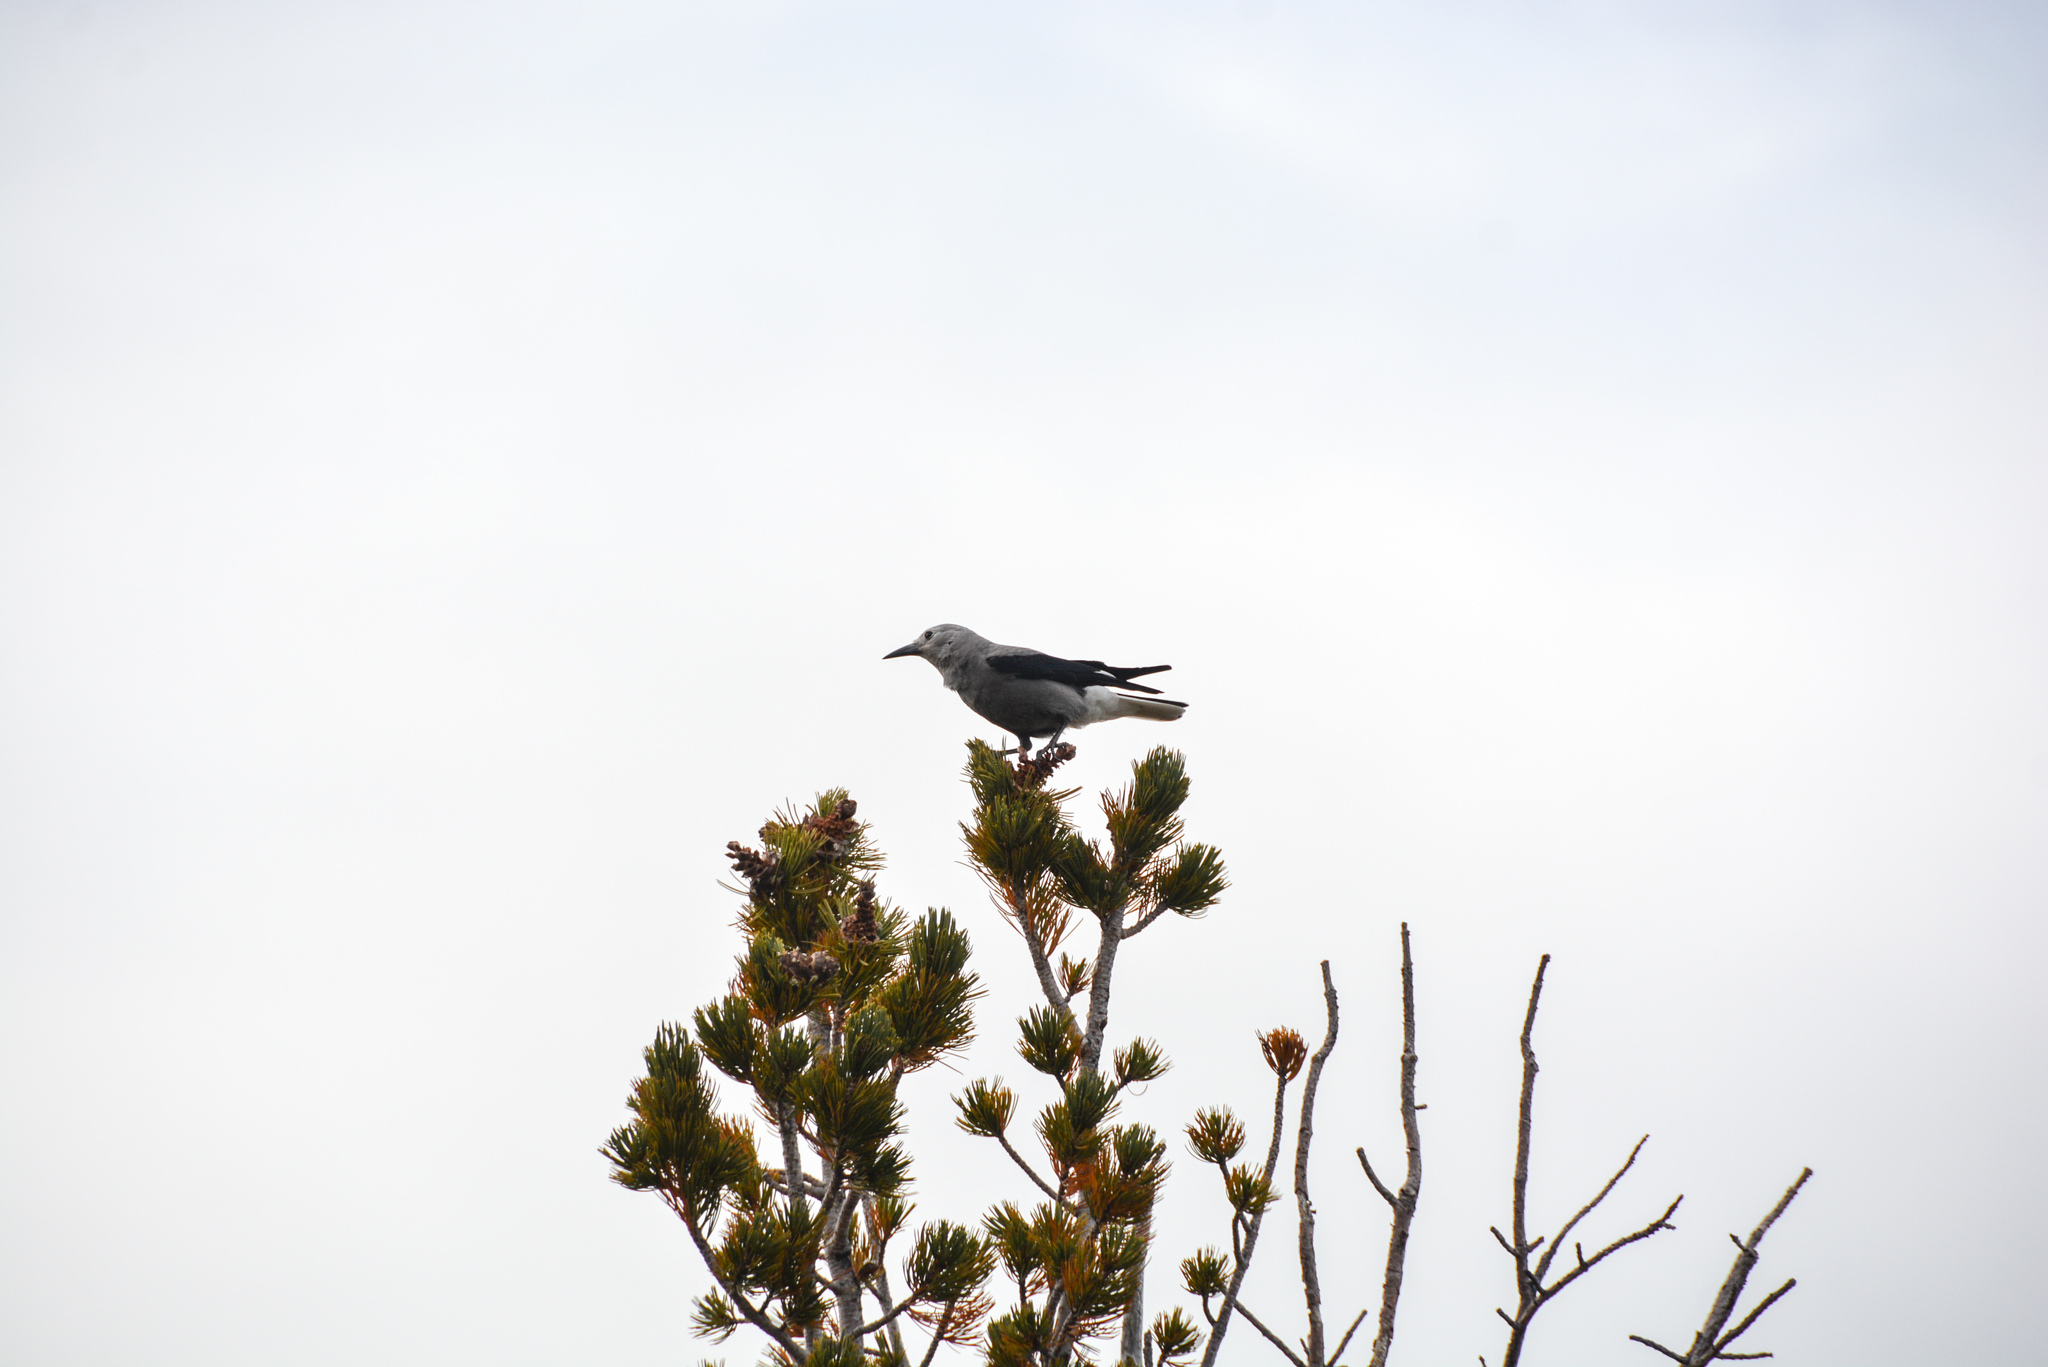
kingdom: Animalia
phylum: Chordata
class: Aves
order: Passeriformes
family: Corvidae
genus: Nucifraga
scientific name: Nucifraga columbiana
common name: Clark's nutcracker
